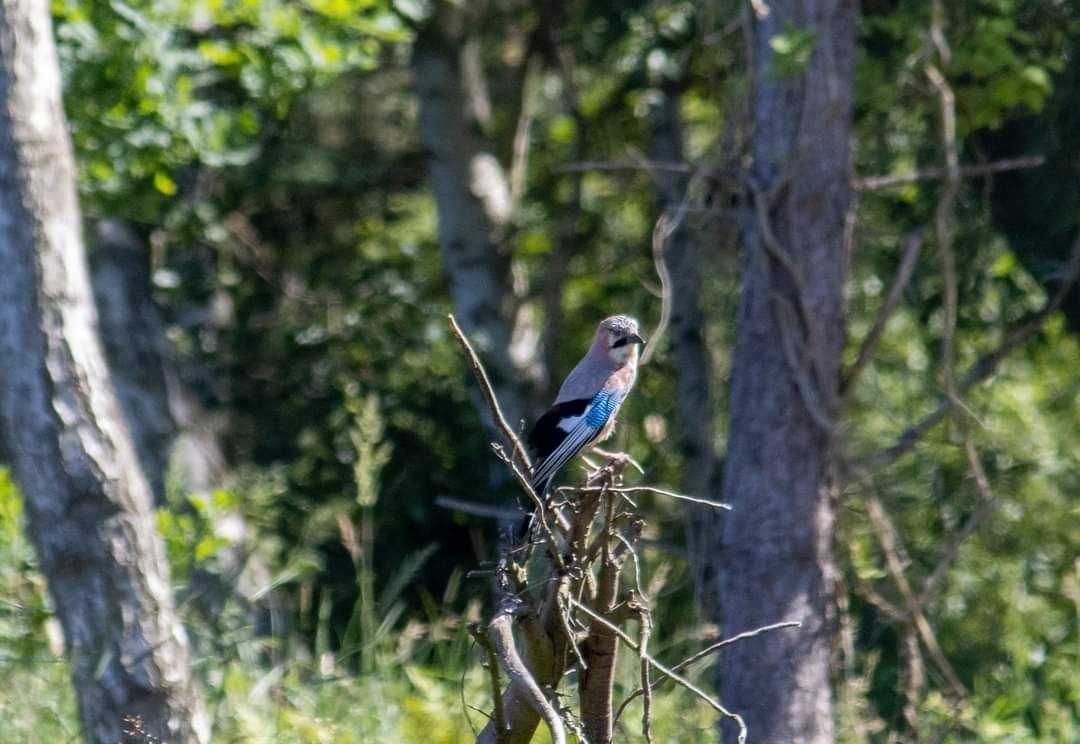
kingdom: Animalia
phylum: Chordata
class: Aves
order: Passeriformes
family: Corvidae
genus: Garrulus
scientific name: Garrulus glandarius
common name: Eurasian jay
